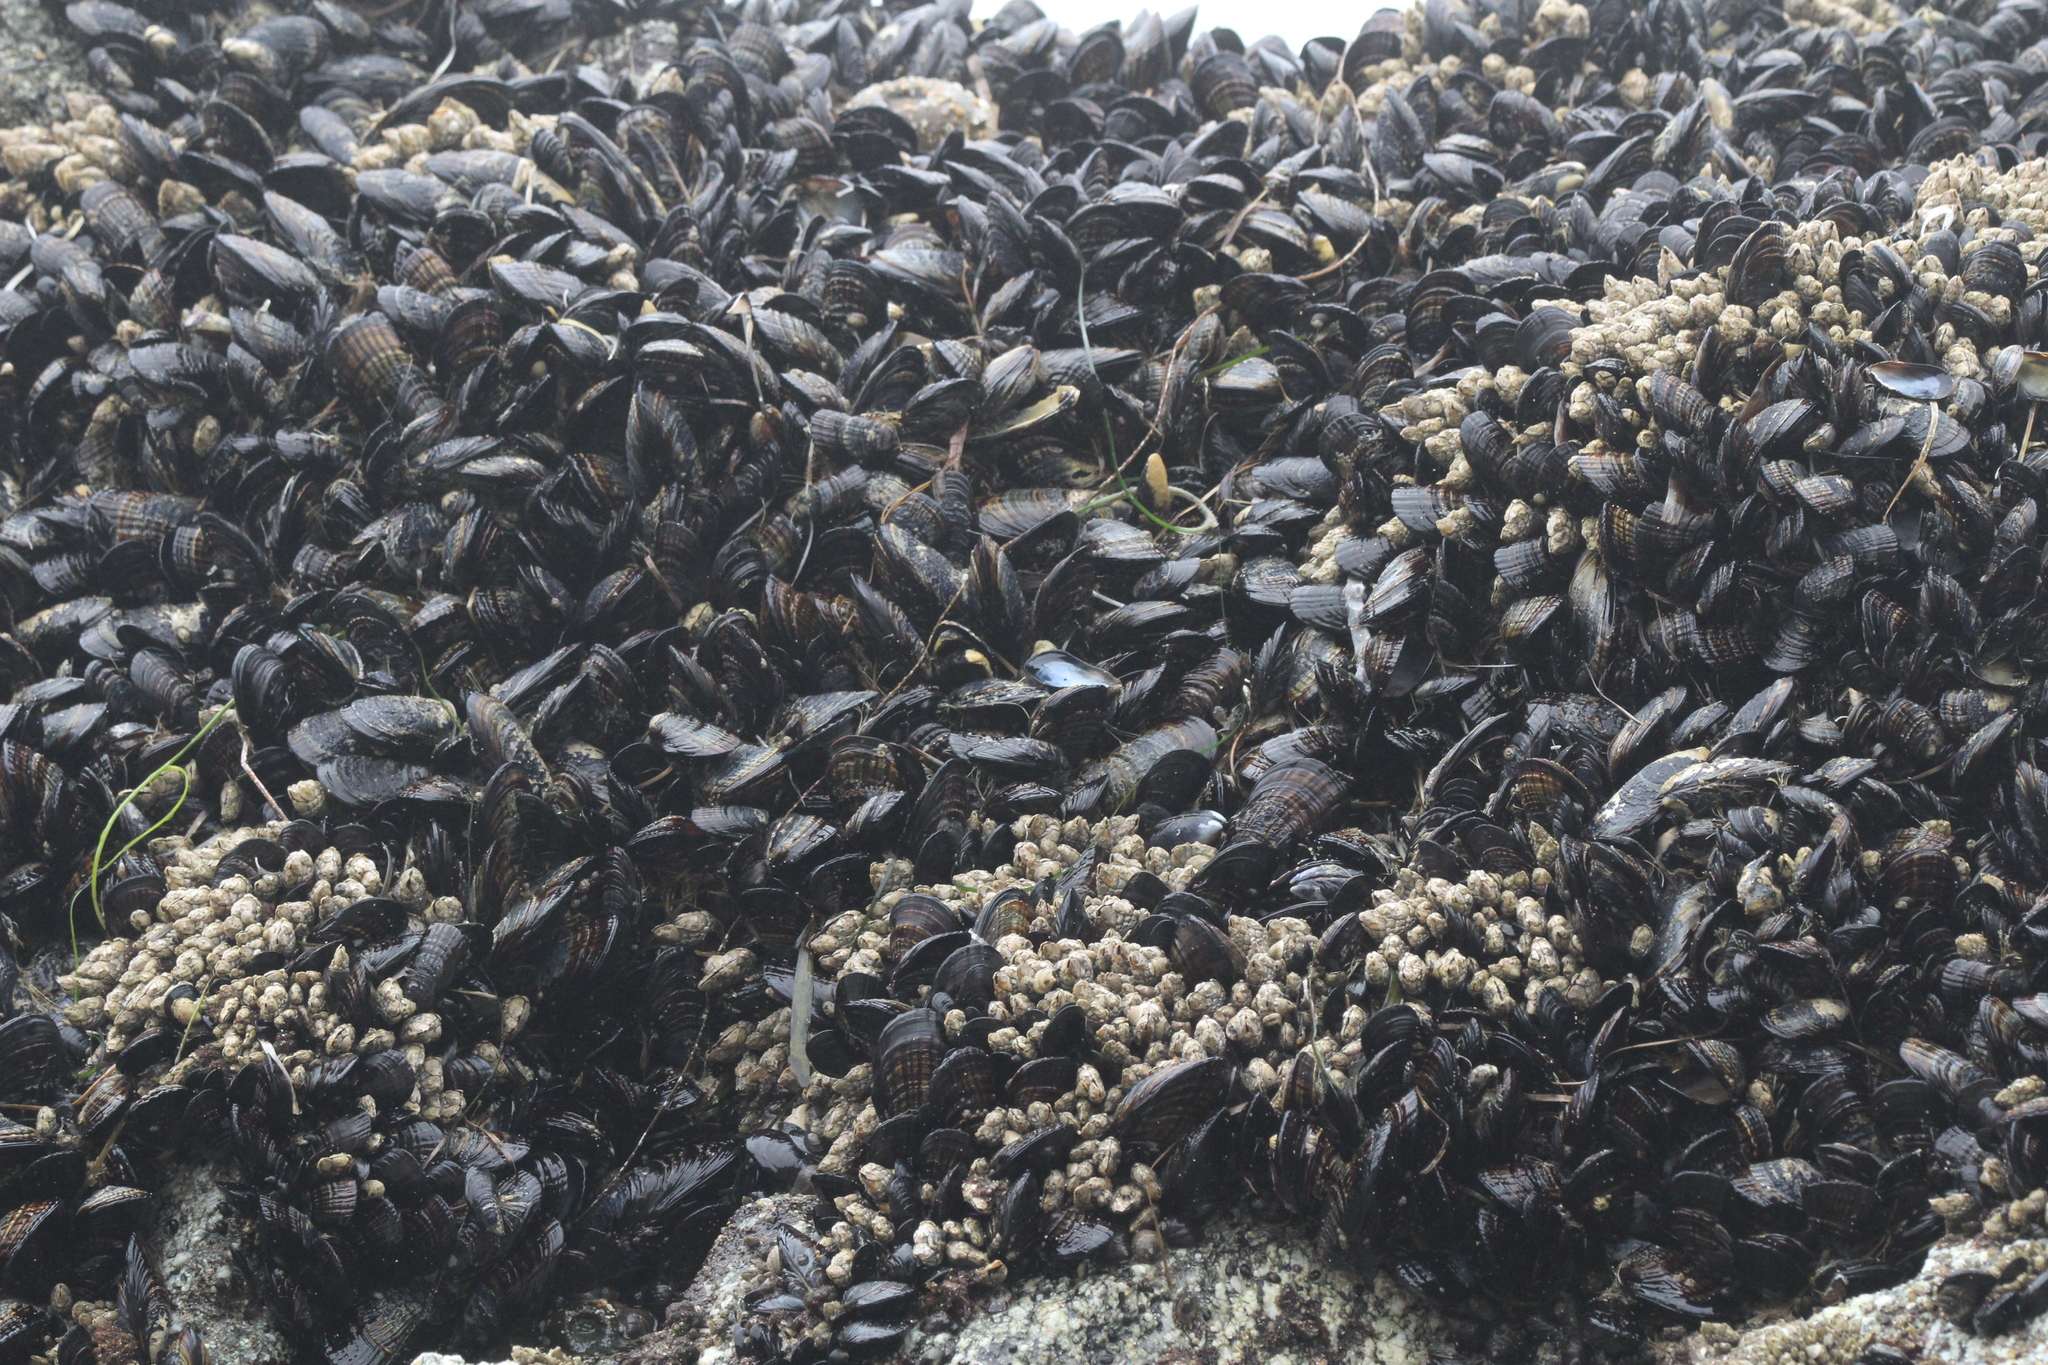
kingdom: Animalia
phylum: Mollusca
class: Bivalvia
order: Mytilida
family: Mytilidae
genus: Mytilus
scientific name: Mytilus californianus
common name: California mussel
